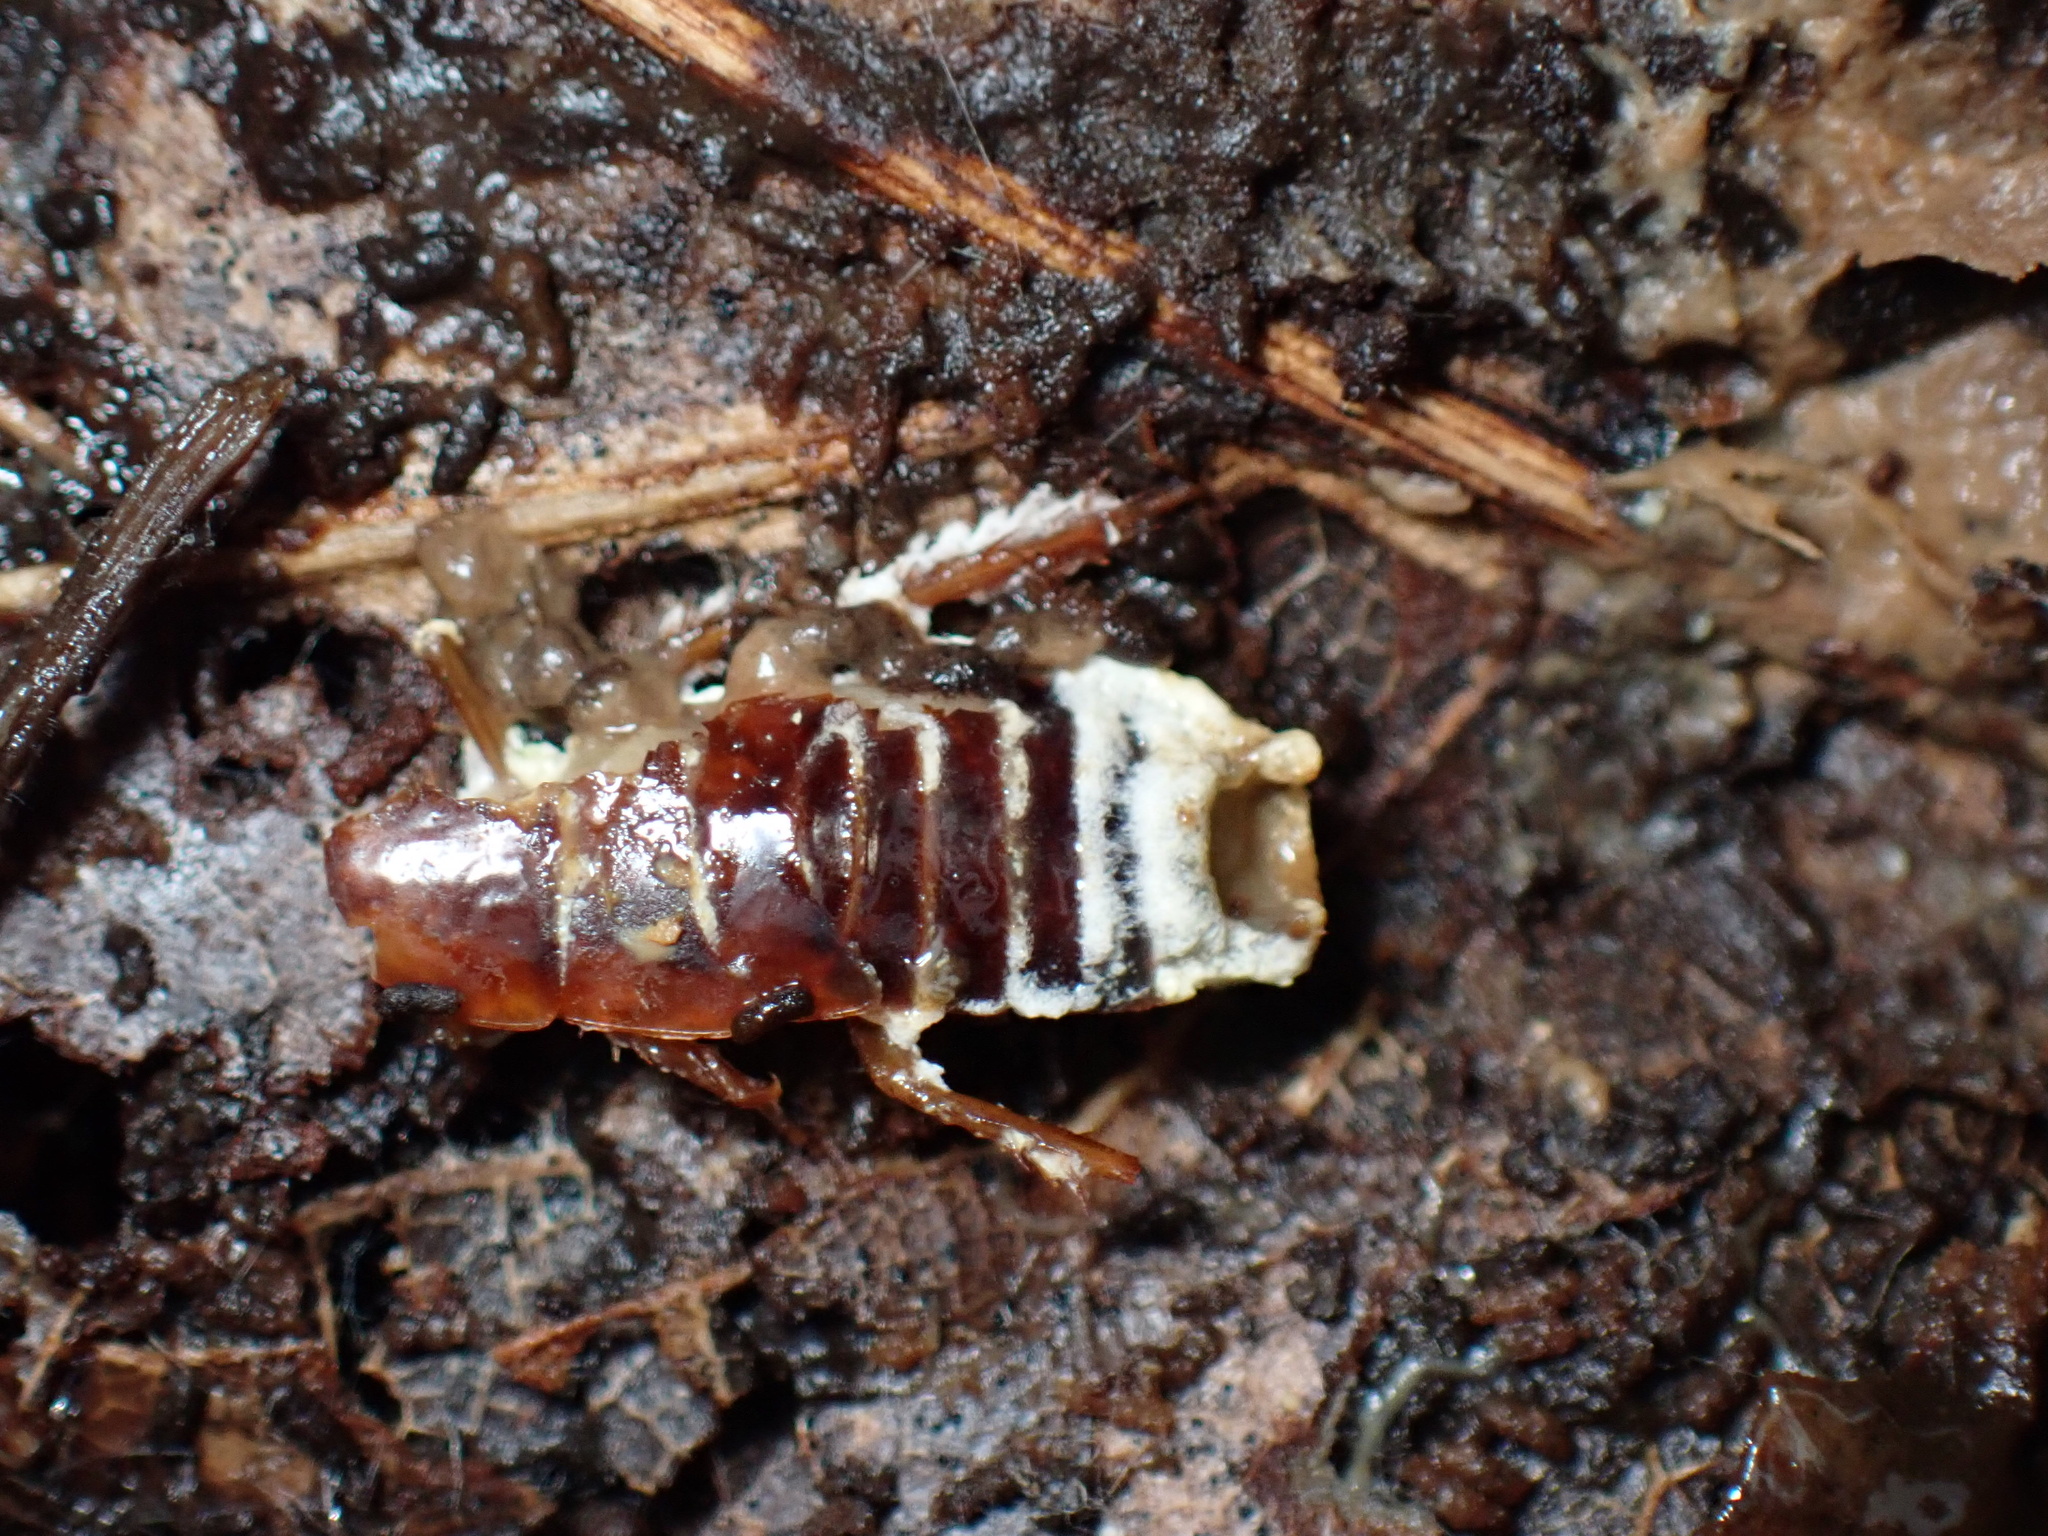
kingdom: Fungi
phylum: Ascomycota
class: Sordariomycetes
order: Hypocreales
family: Cordycipitaceae
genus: Beauveria
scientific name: Beauveria bassiana
